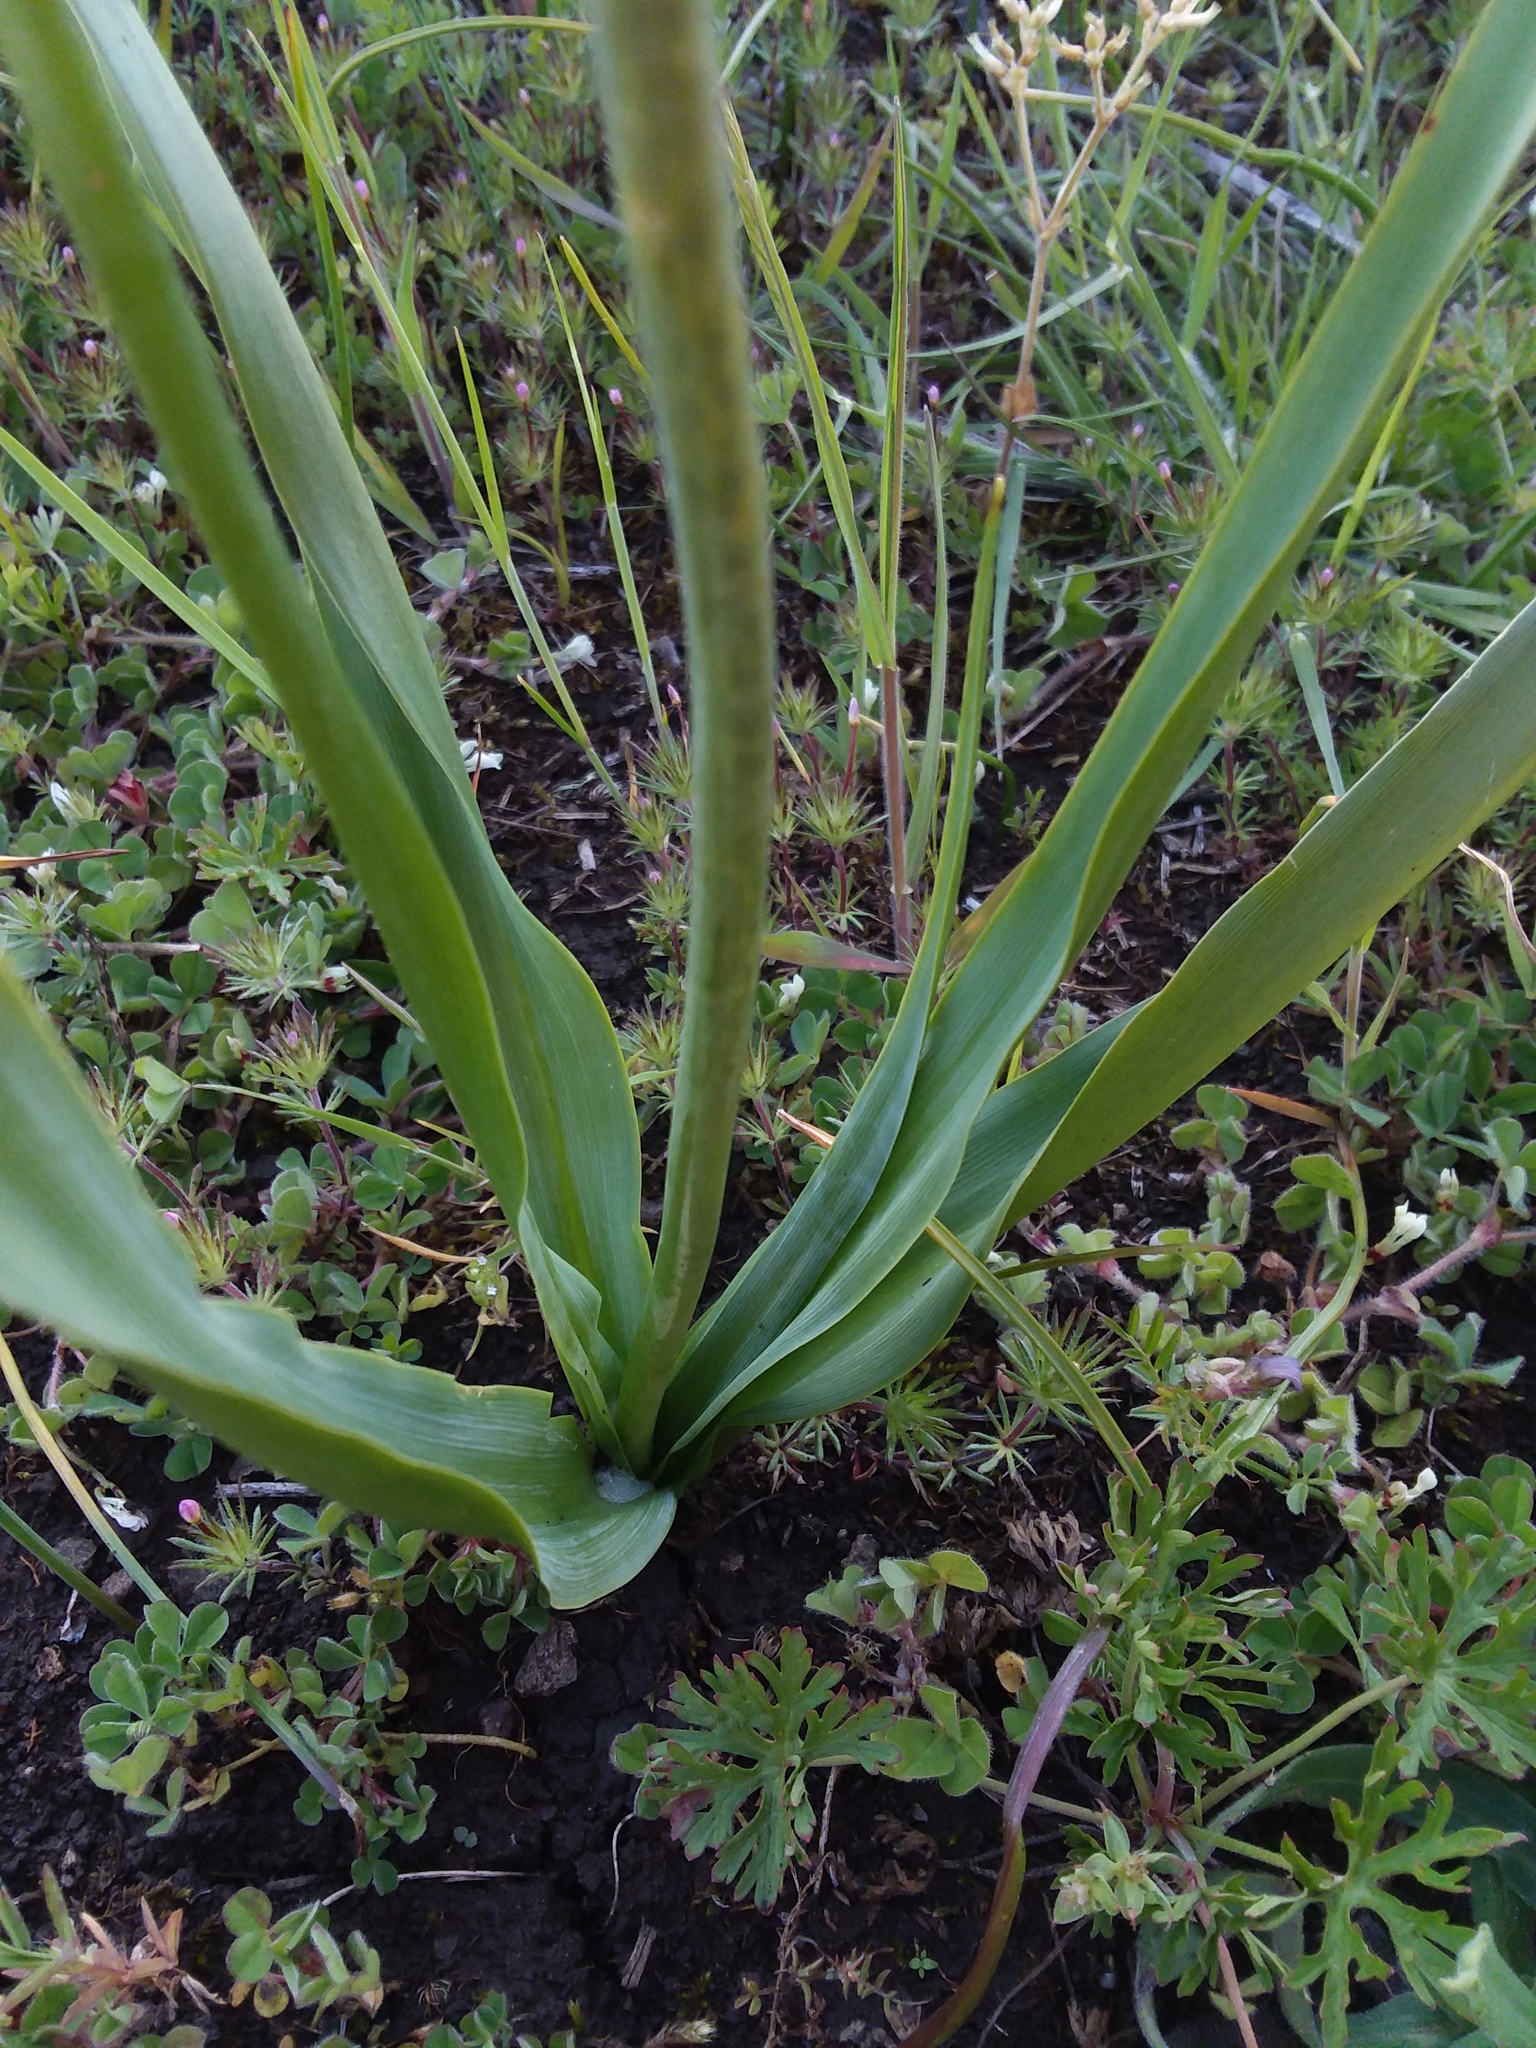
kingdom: Plantae
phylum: Tracheophyta
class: Liliopsida
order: Asparagales
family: Asparagaceae
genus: Camassia
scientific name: Camassia leichtlinii
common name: Leichtlin's camas
